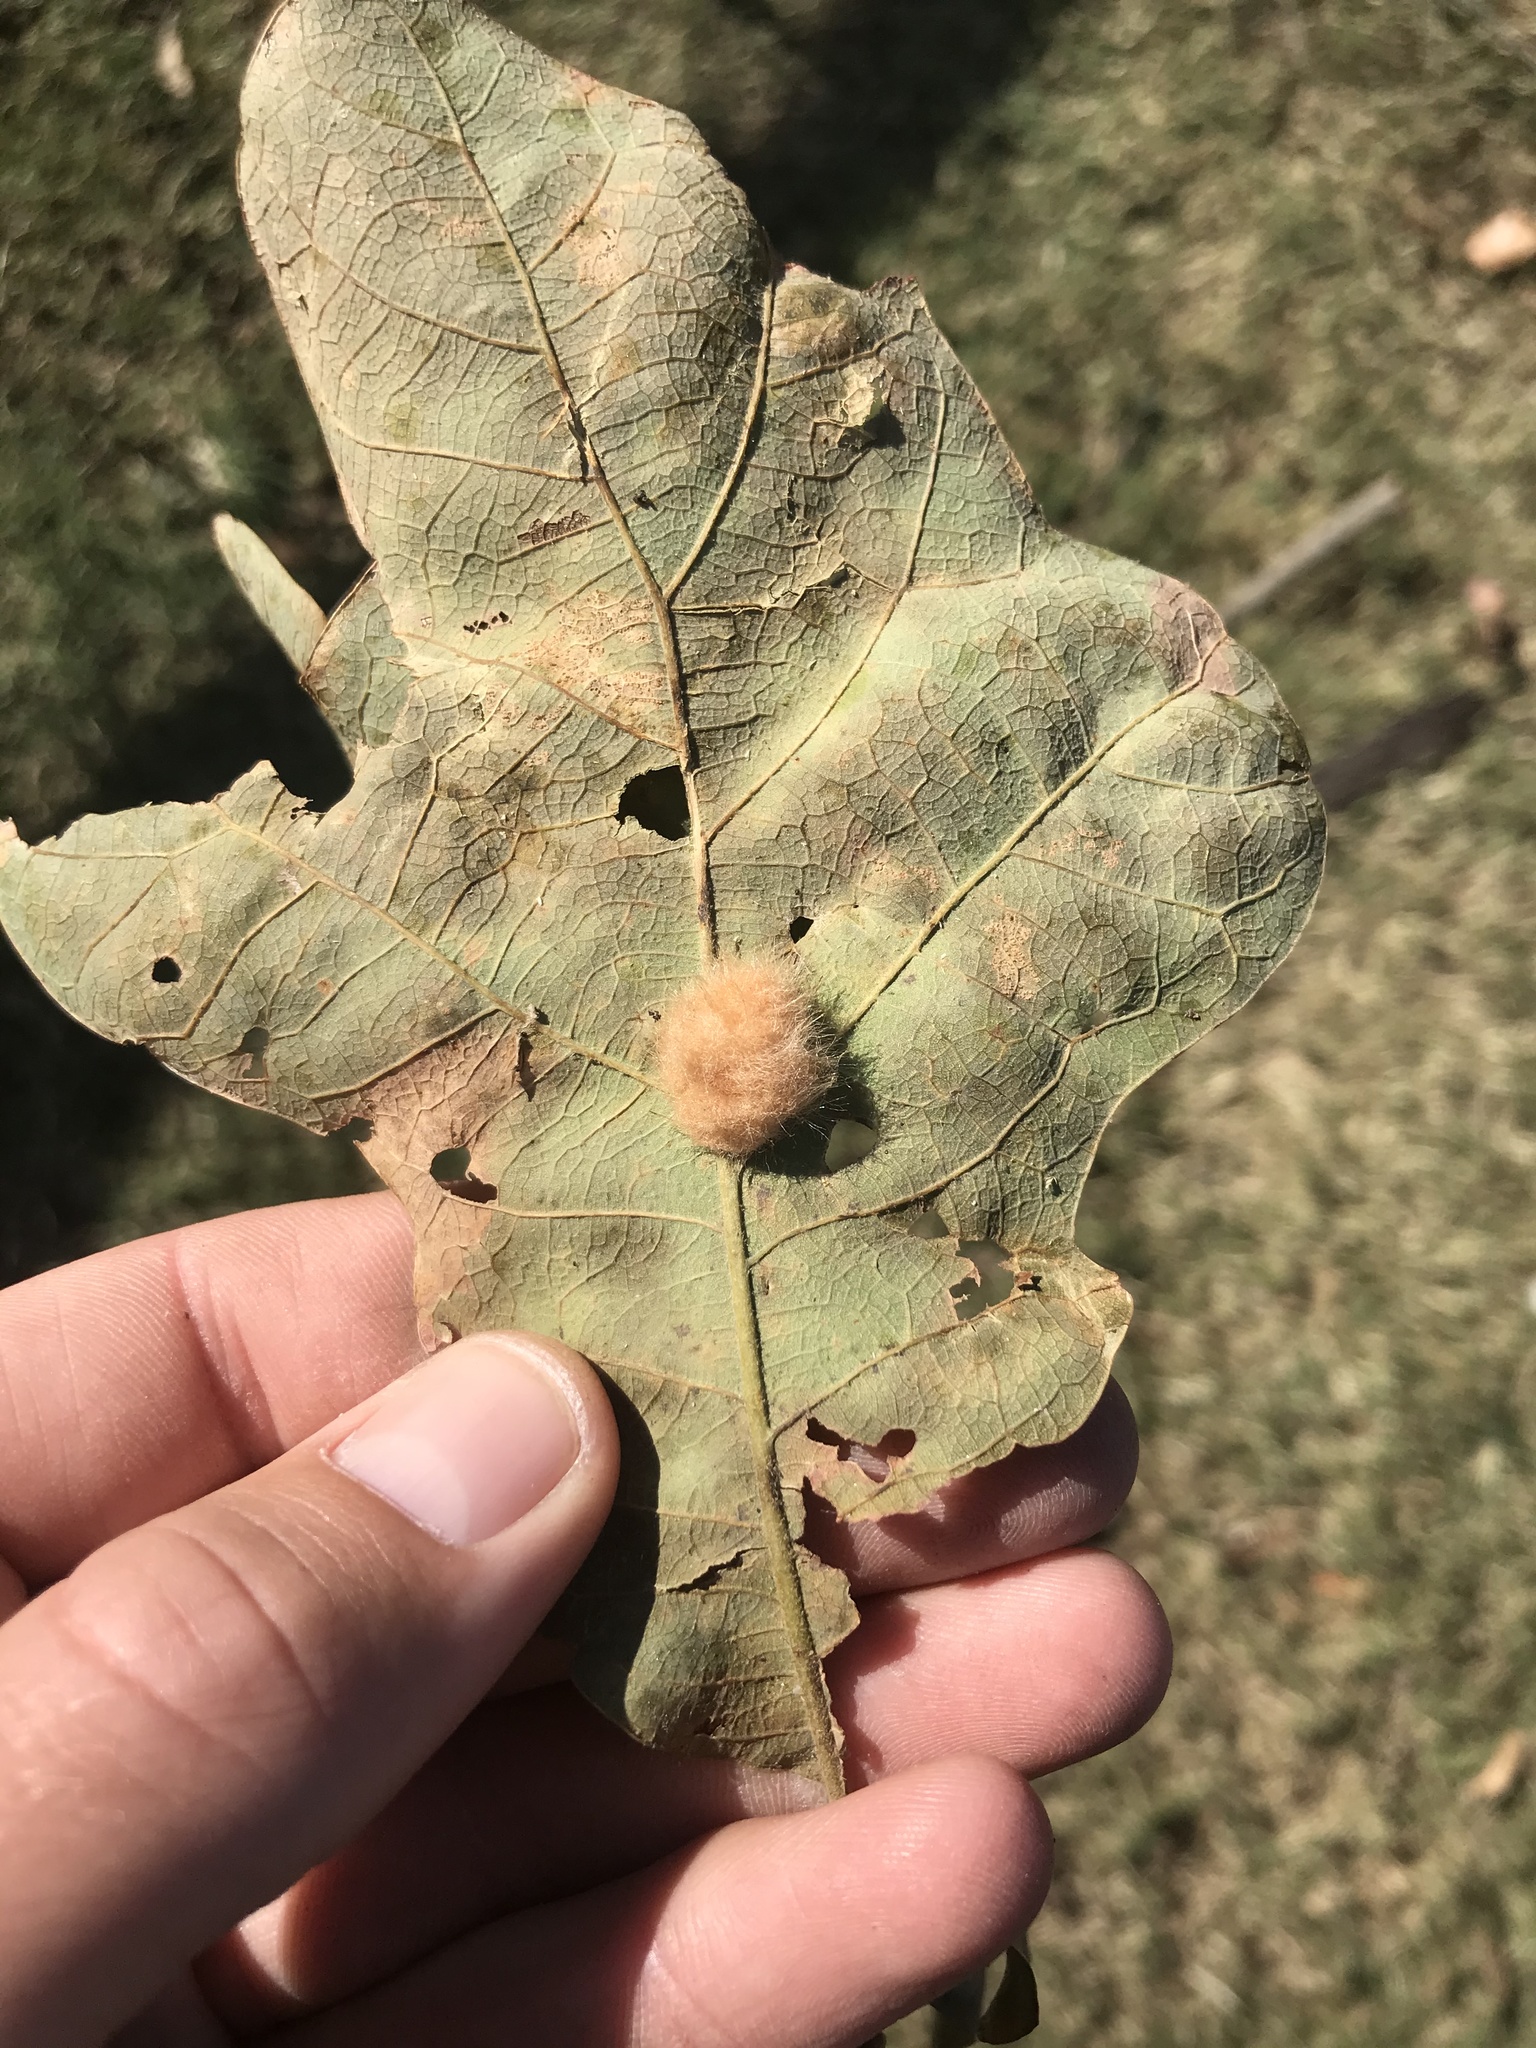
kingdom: Animalia
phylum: Arthropoda
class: Insecta
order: Hymenoptera
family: Cynipidae
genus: Andricus
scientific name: Andricus Druon pattoni
